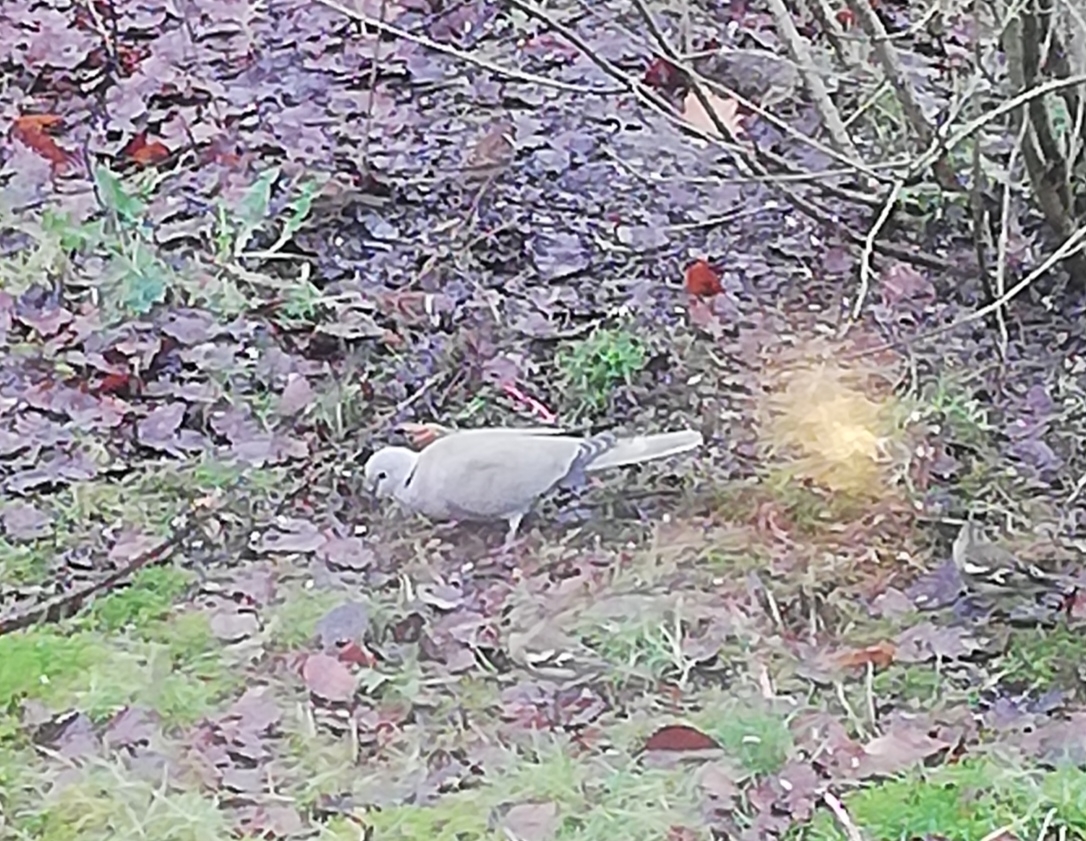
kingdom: Animalia
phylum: Chordata
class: Aves
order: Columbiformes
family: Columbidae
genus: Streptopelia
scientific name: Streptopelia decaocto
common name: Eurasian collared dove
